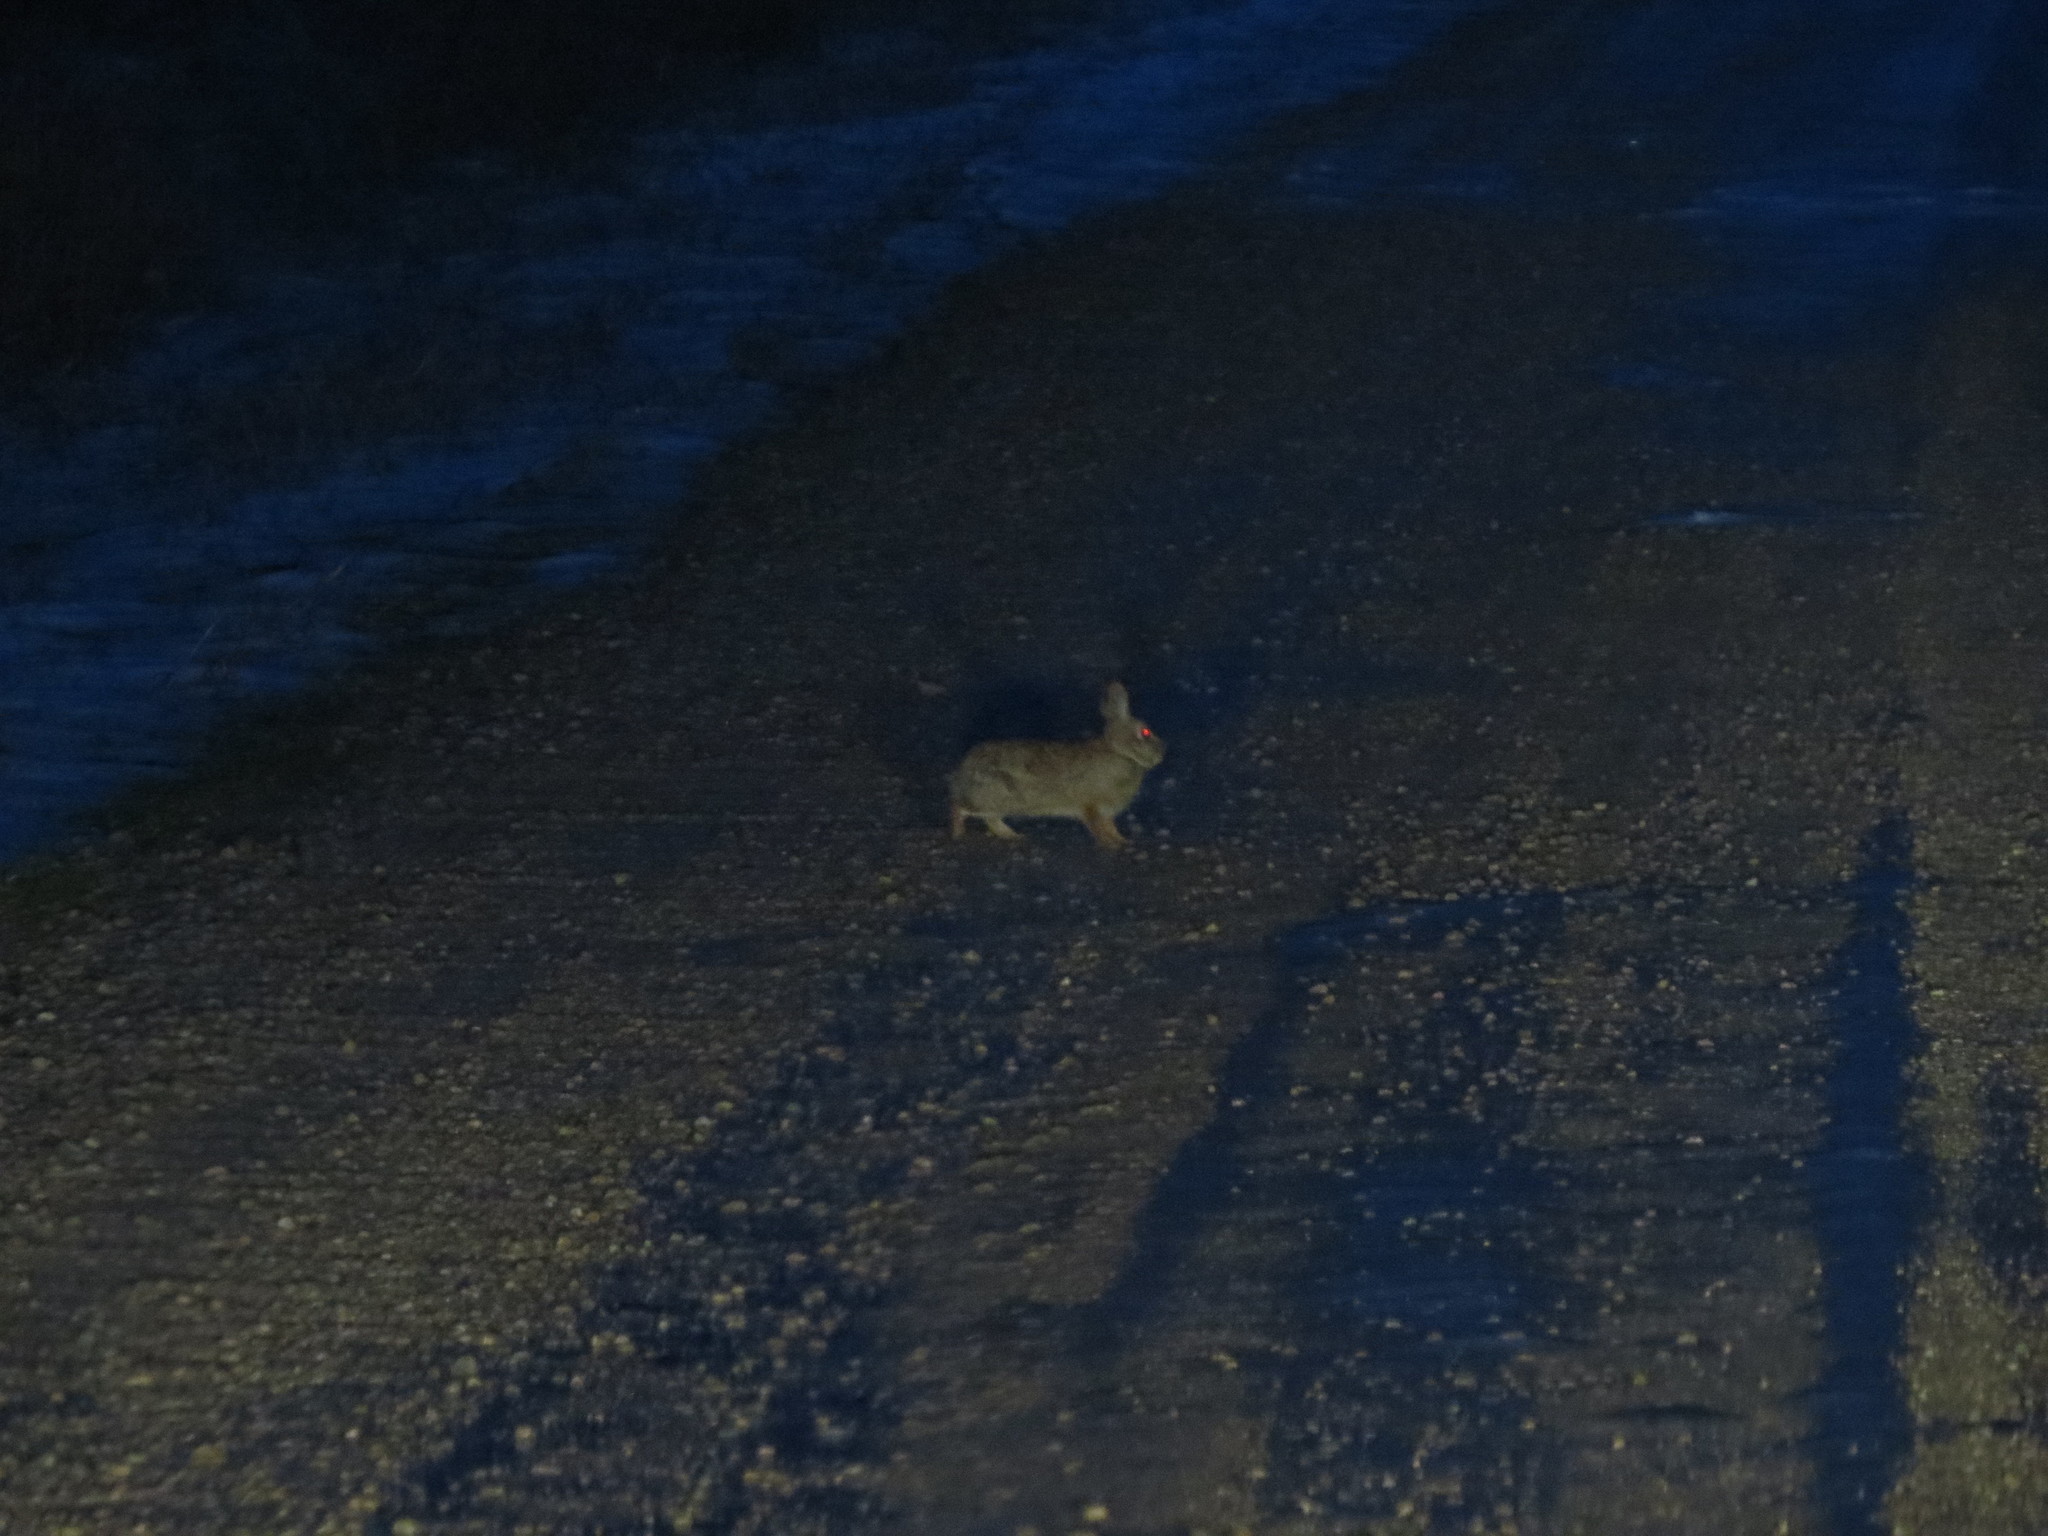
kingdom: Animalia
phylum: Chordata
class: Mammalia
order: Lagomorpha
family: Leporidae
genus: Sylvilagus
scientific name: Sylvilagus floridanus
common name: Eastern cottontail
